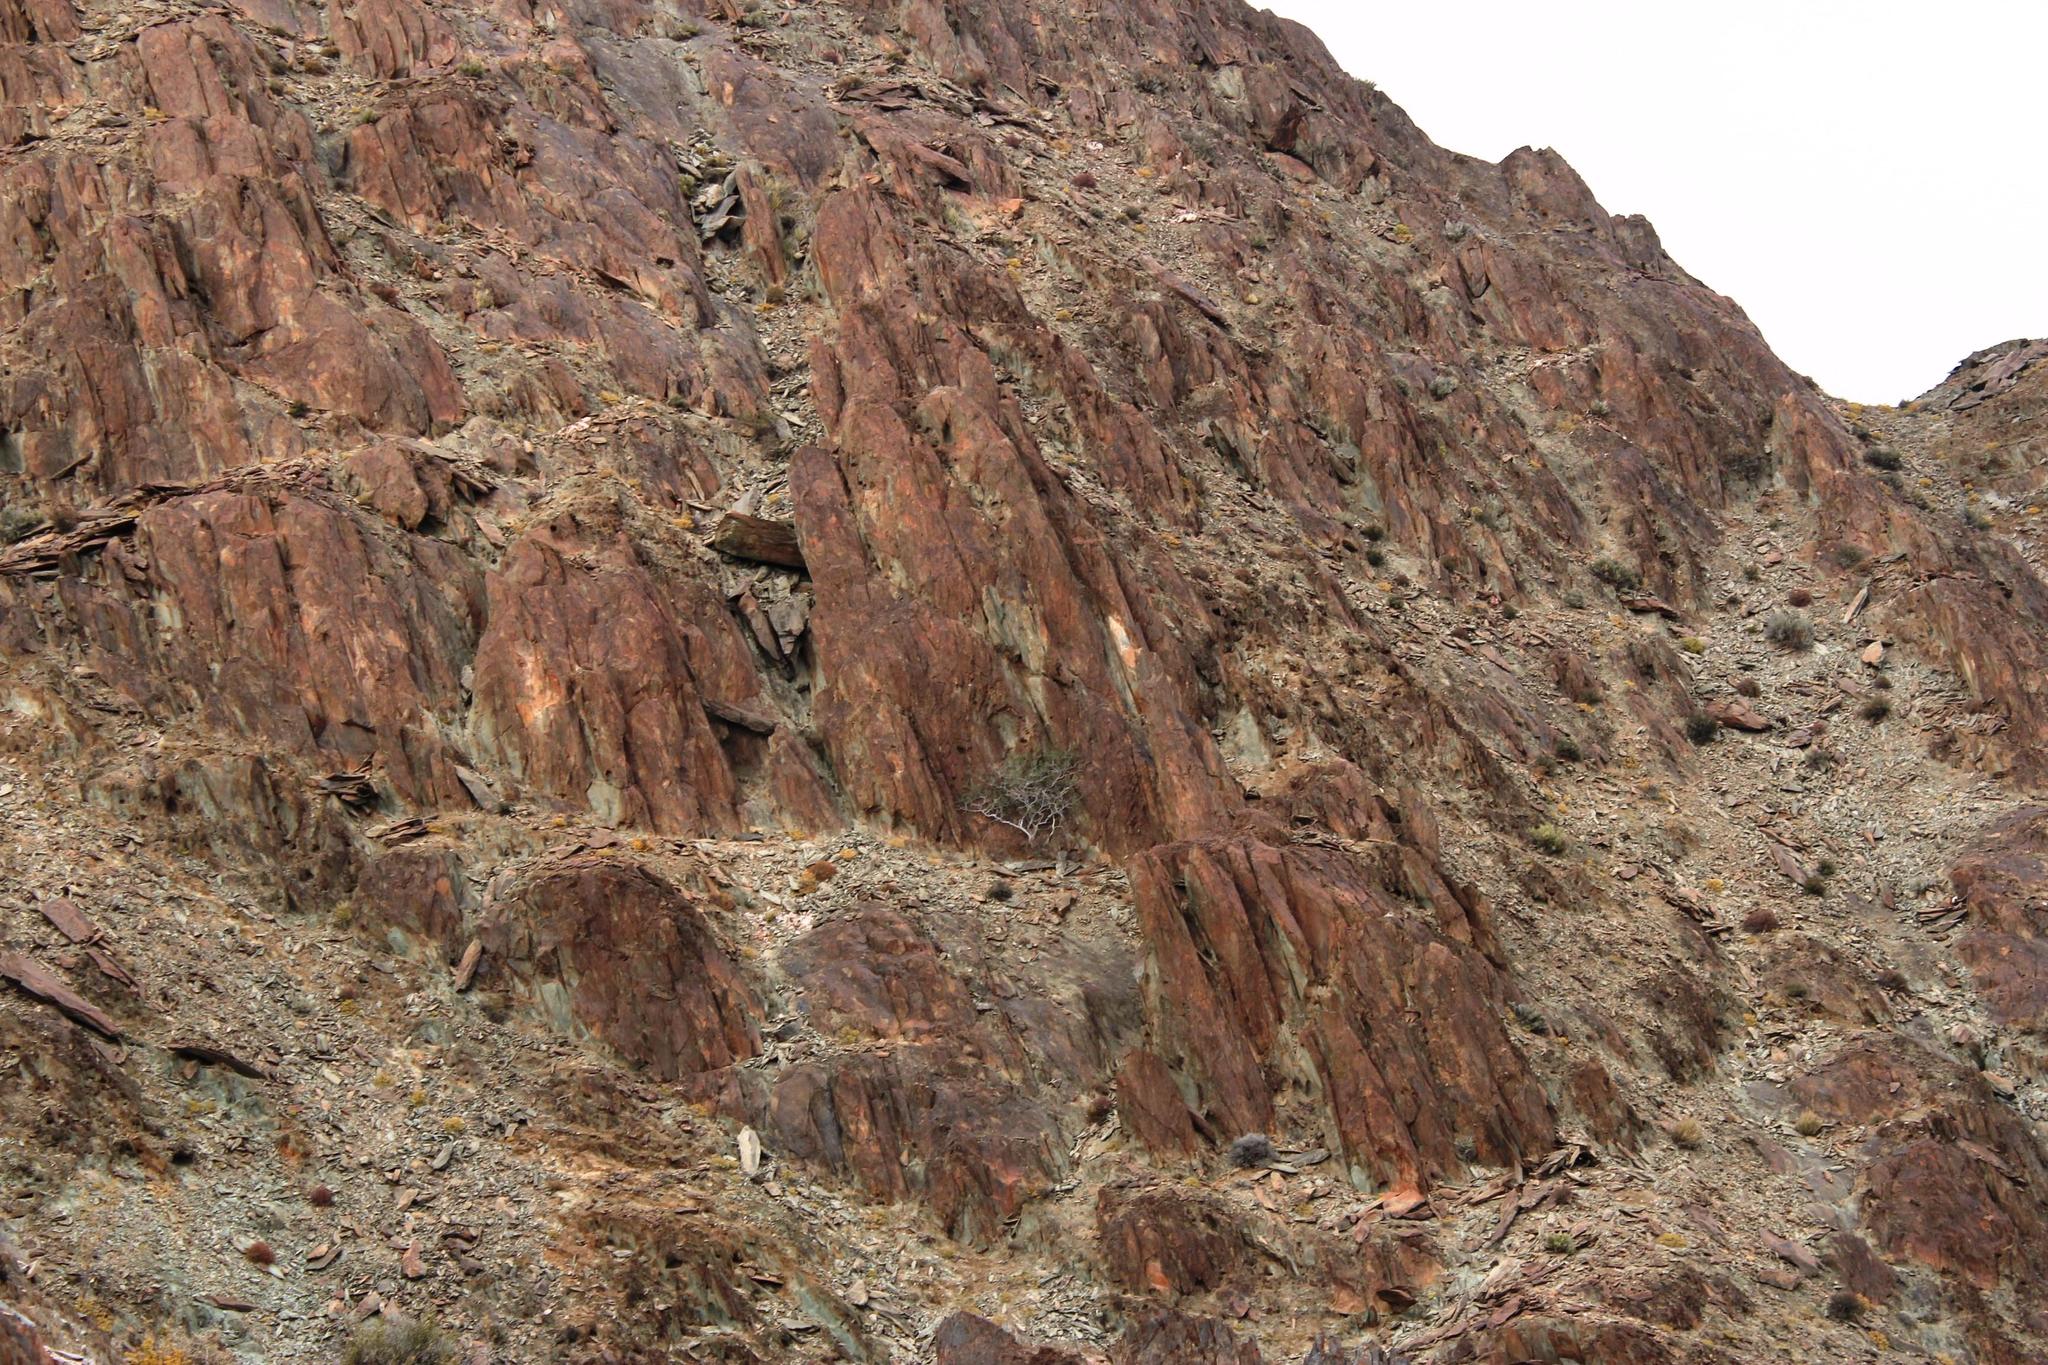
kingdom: Plantae
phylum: Tracheophyta
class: Magnoliopsida
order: Rosales
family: Moraceae
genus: Ficus
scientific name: Ficus cordata
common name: Namaqua rock fig
